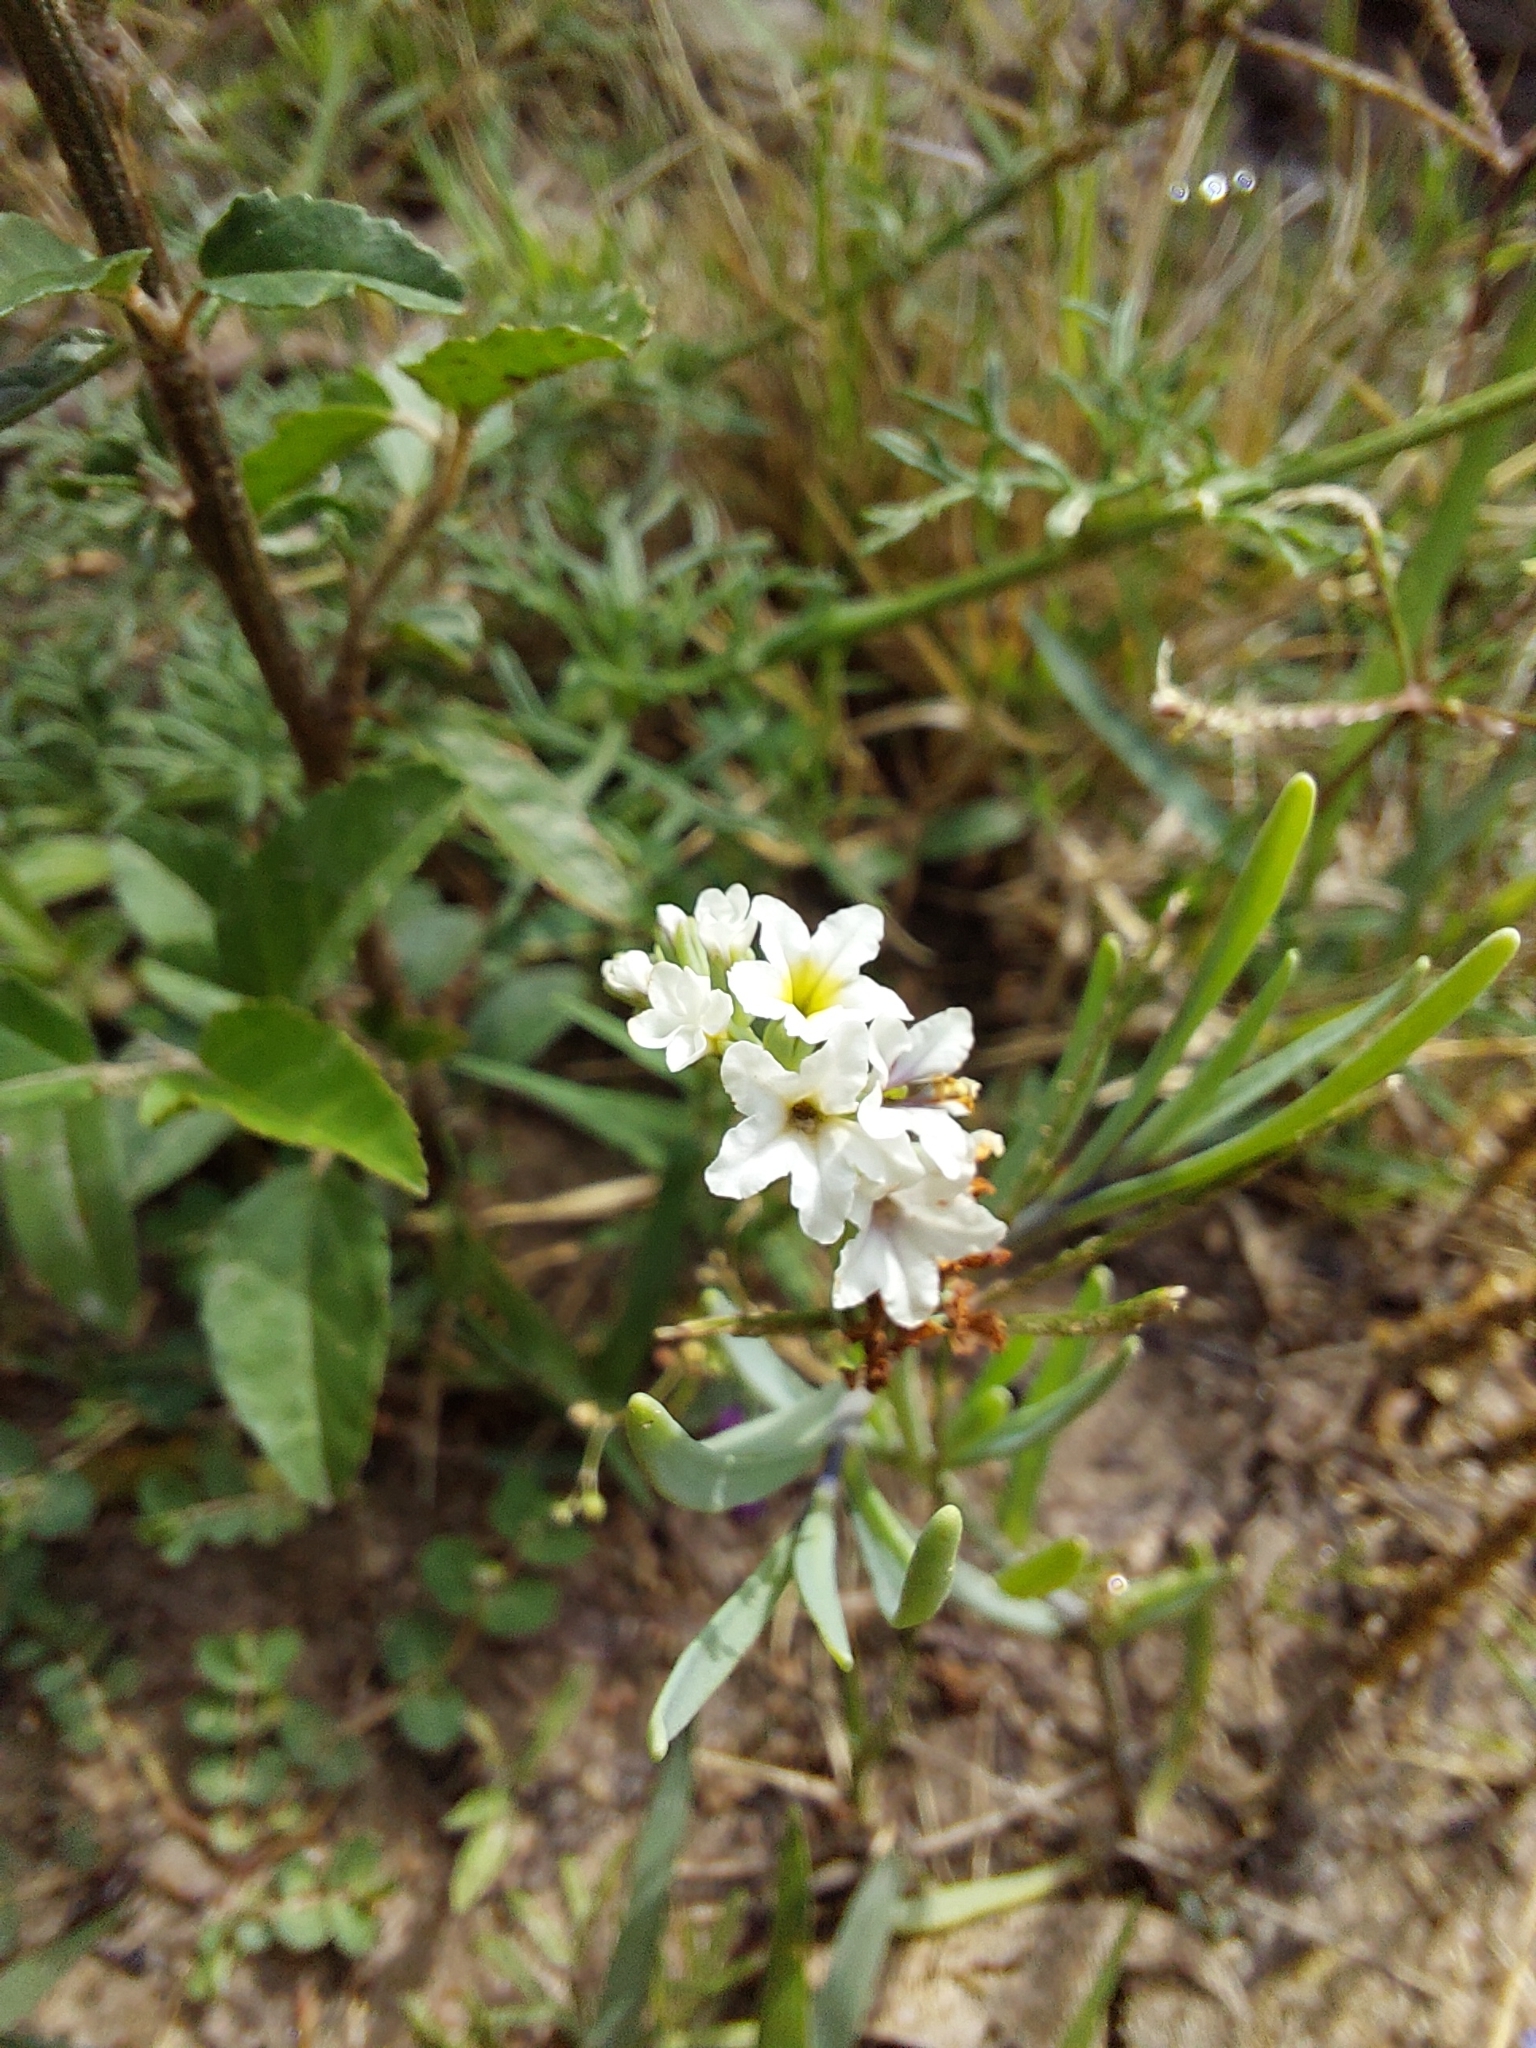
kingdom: Plantae
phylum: Tracheophyta
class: Magnoliopsida
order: Boraginales
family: Heliotropiaceae
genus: Heliotropium
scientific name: Heliotropium curassavicum
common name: Seaside heliotrope
